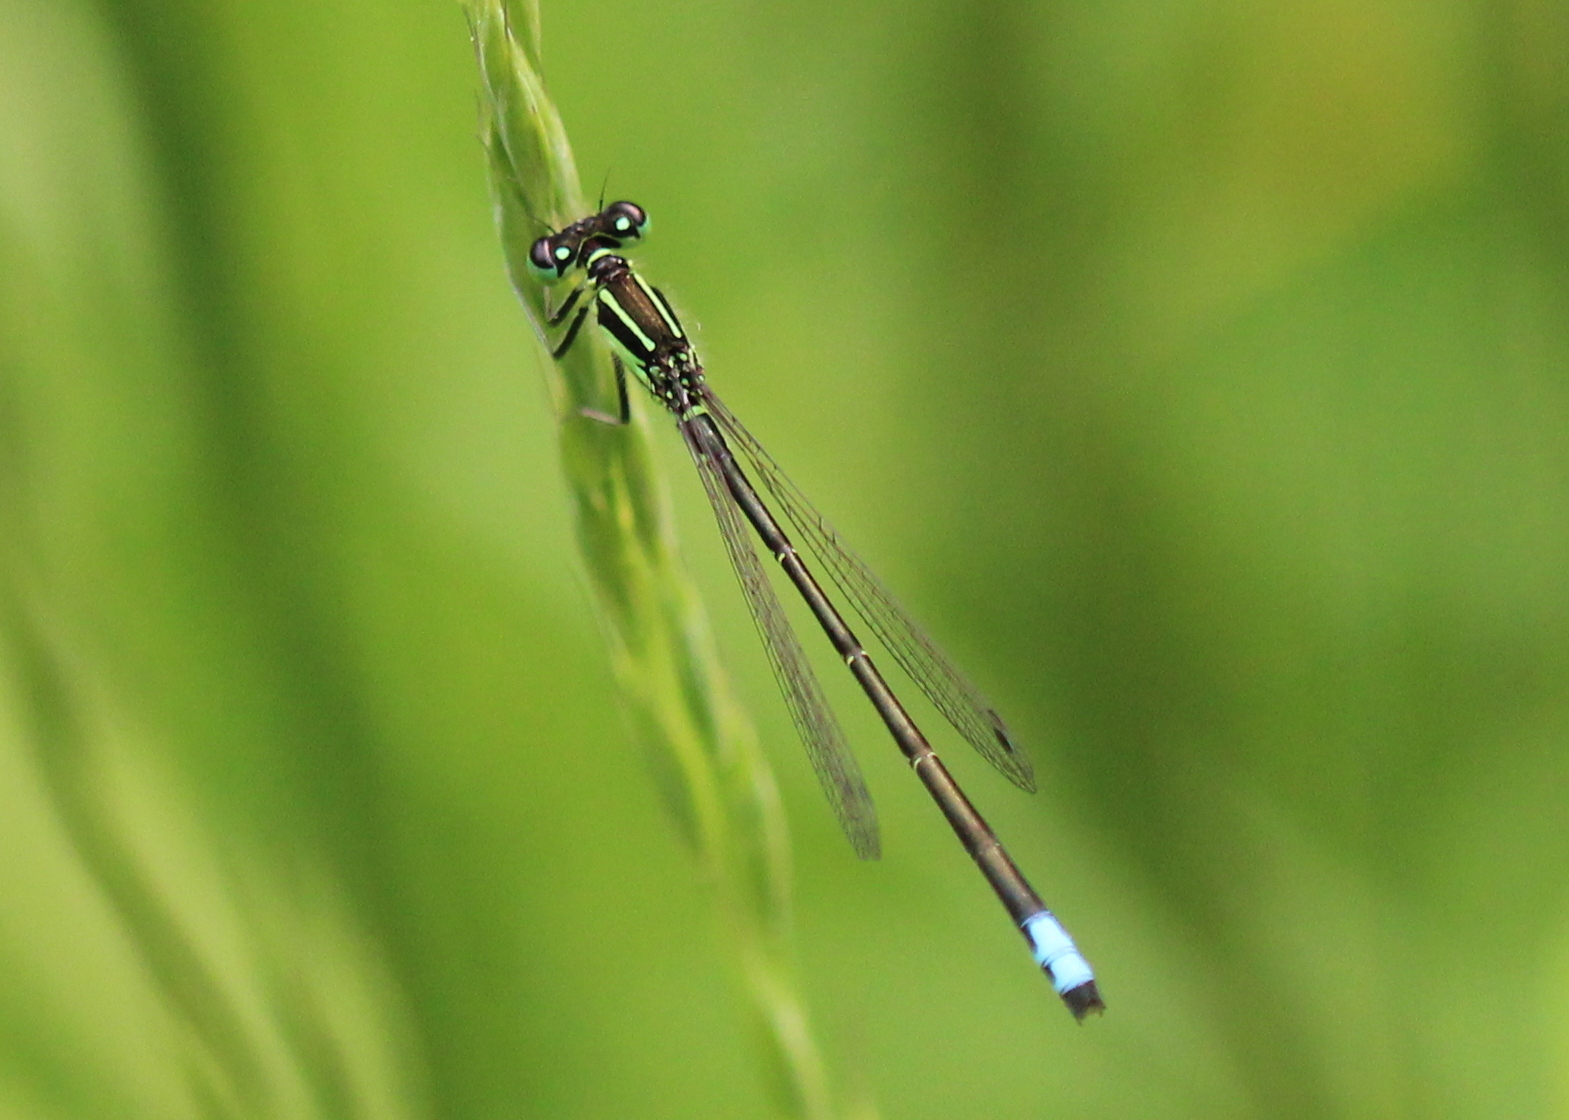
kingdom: Animalia
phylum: Arthropoda
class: Insecta
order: Odonata
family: Coenagrionidae
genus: Ischnura
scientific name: Ischnura verticalis
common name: Eastern forktail
